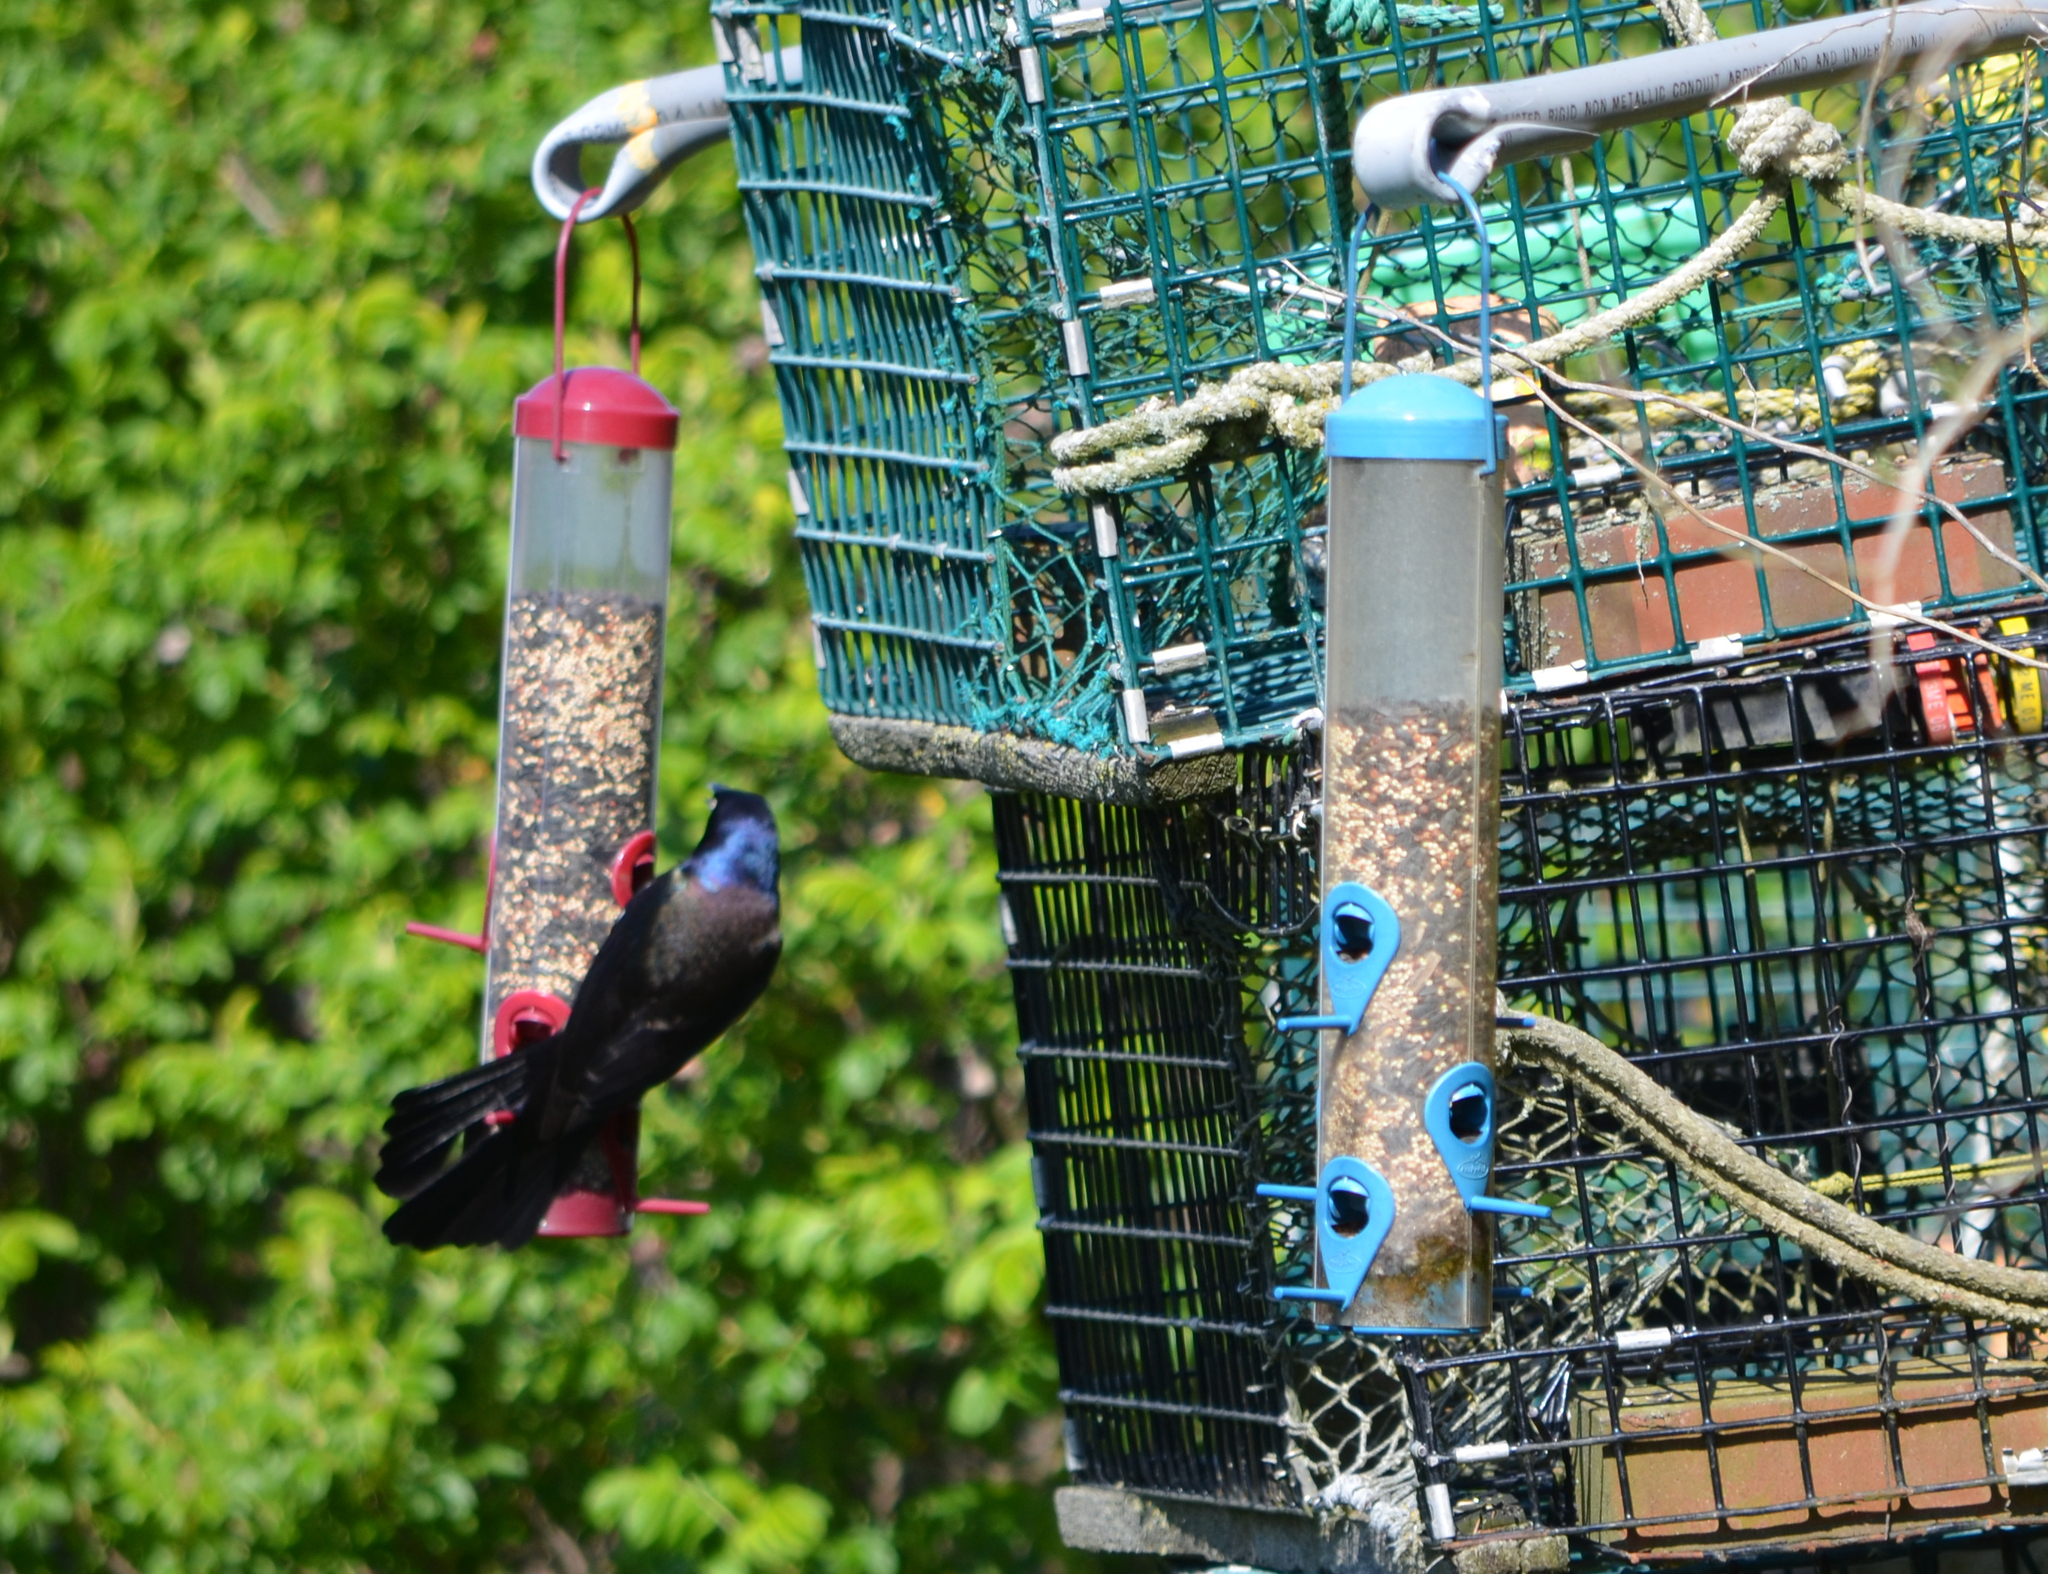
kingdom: Animalia
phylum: Chordata
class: Aves
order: Passeriformes
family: Icteridae
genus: Quiscalus
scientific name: Quiscalus quiscula
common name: Common grackle
